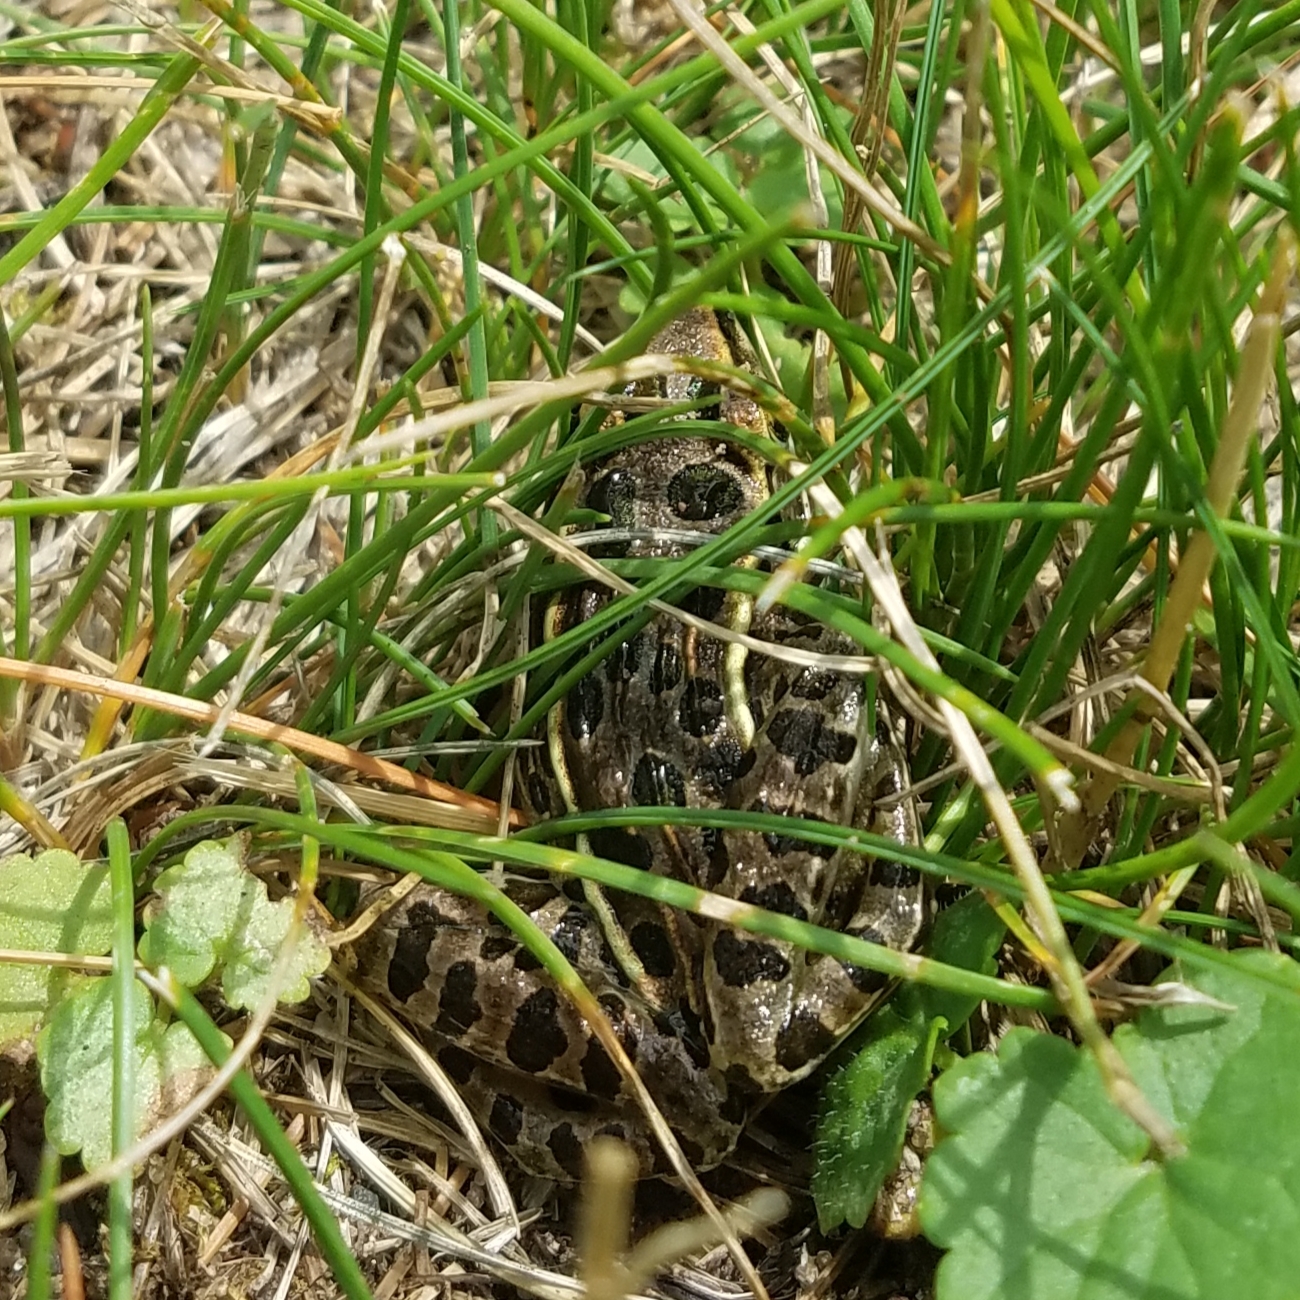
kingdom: Animalia
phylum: Chordata
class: Amphibia
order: Anura
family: Ranidae
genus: Lithobates
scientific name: Lithobates pipiens
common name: Northern leopard frog
